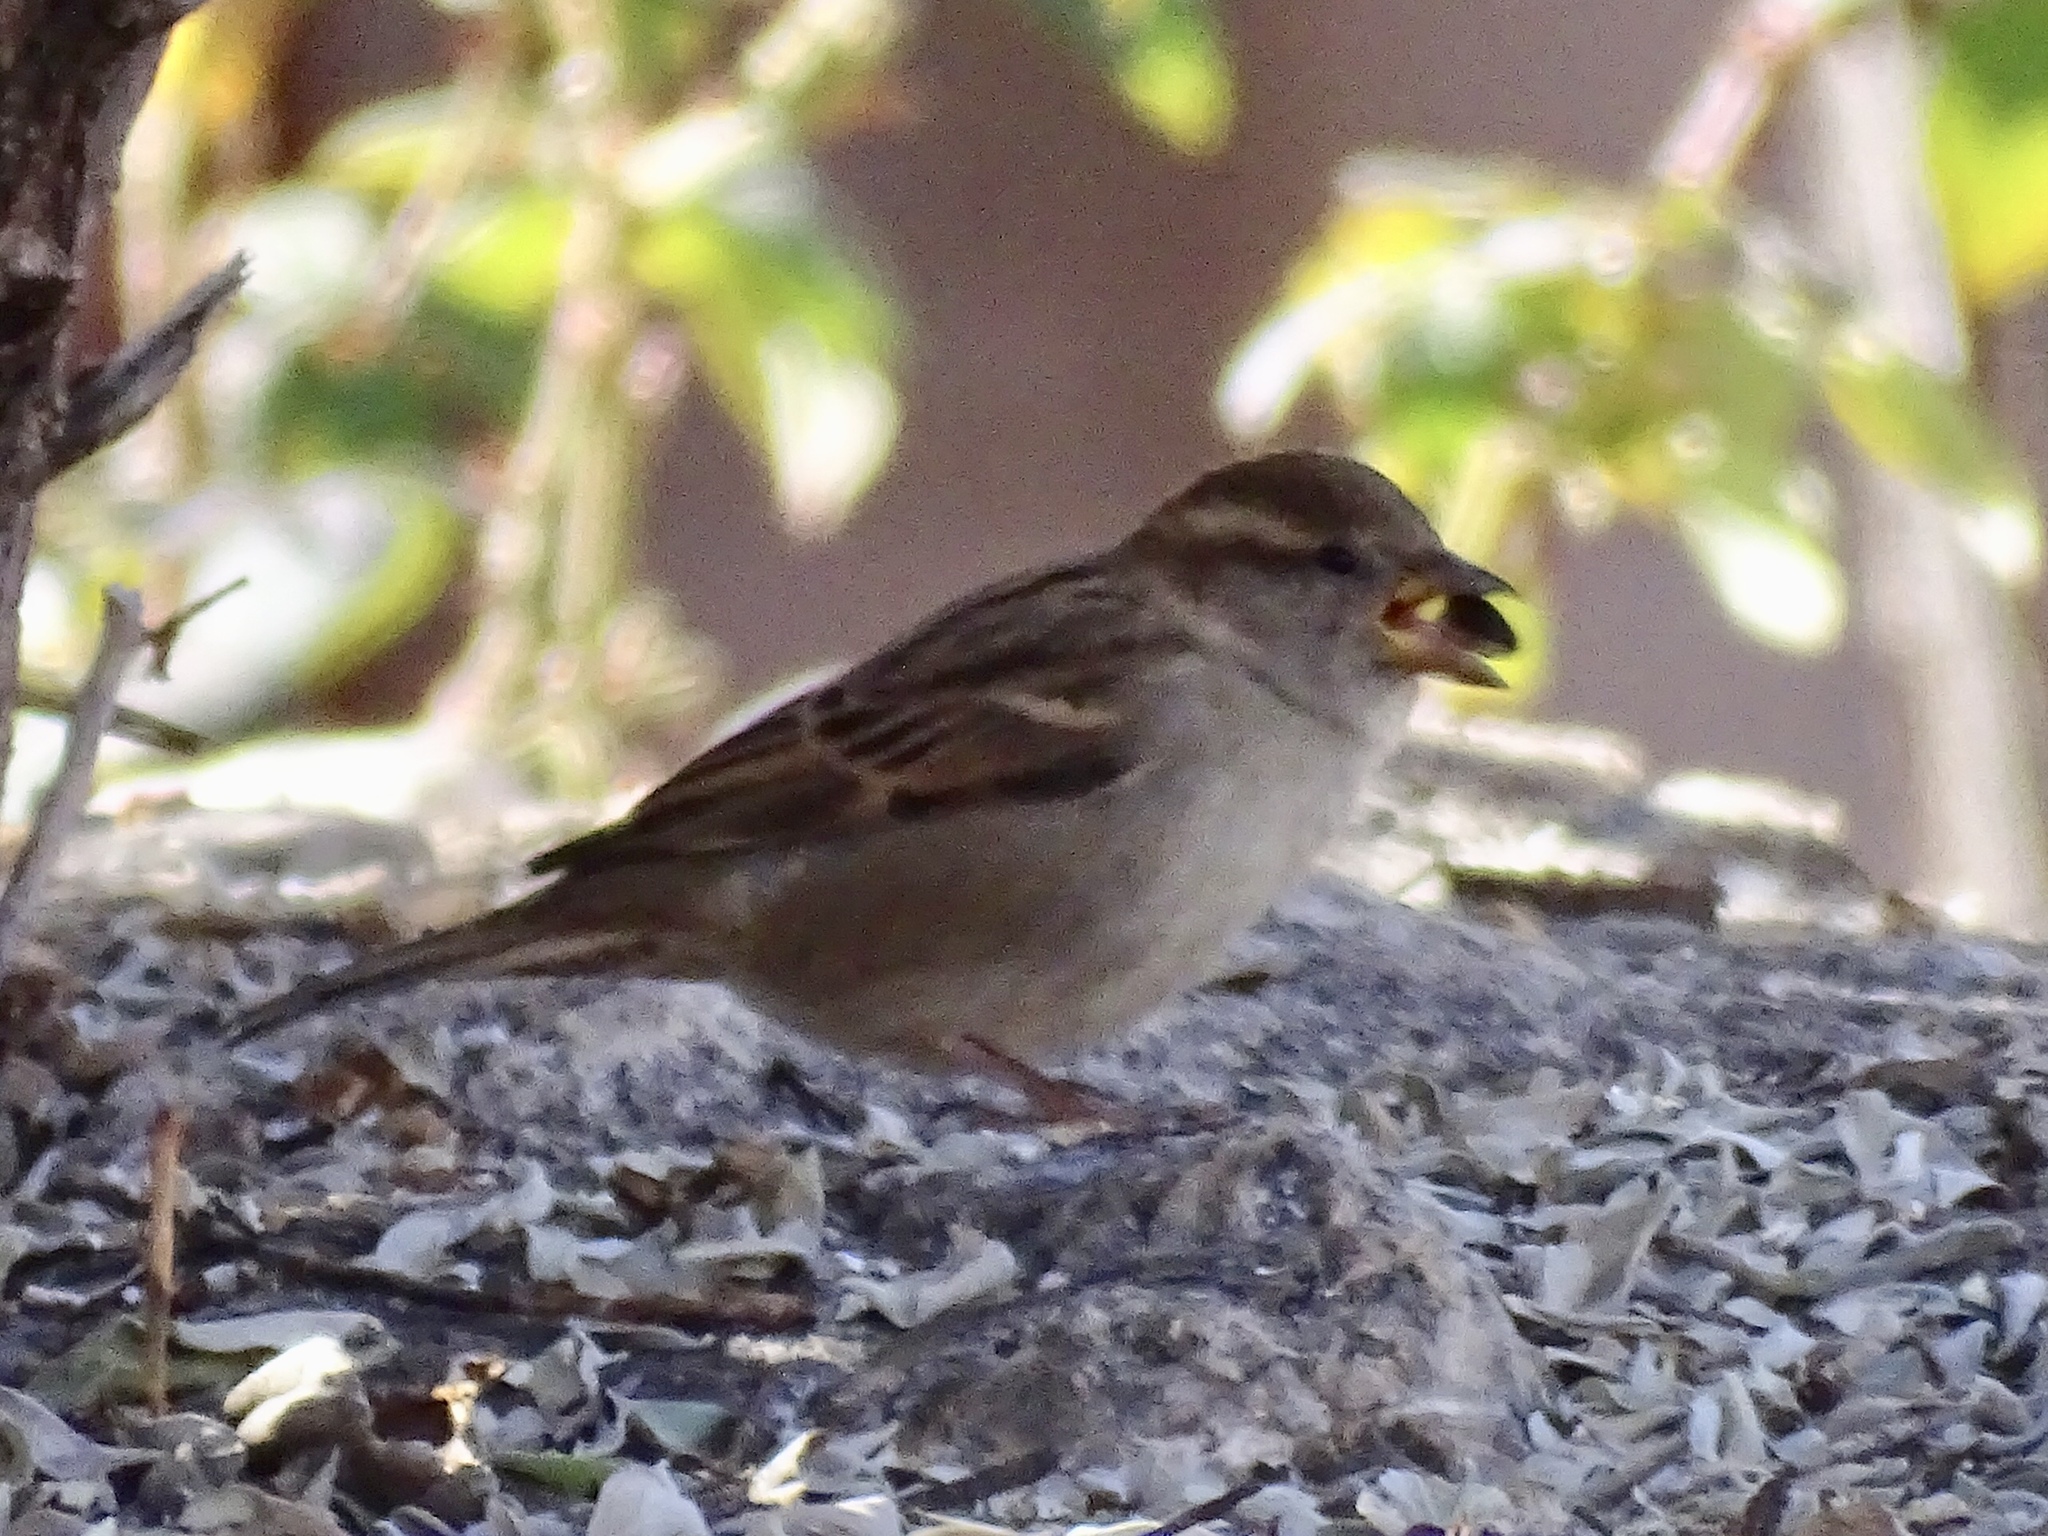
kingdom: Animalia
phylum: Chordata
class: Aves
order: Passeriformes
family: Passeridae
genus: Passer
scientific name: Passer domesticus
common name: House sparrow
